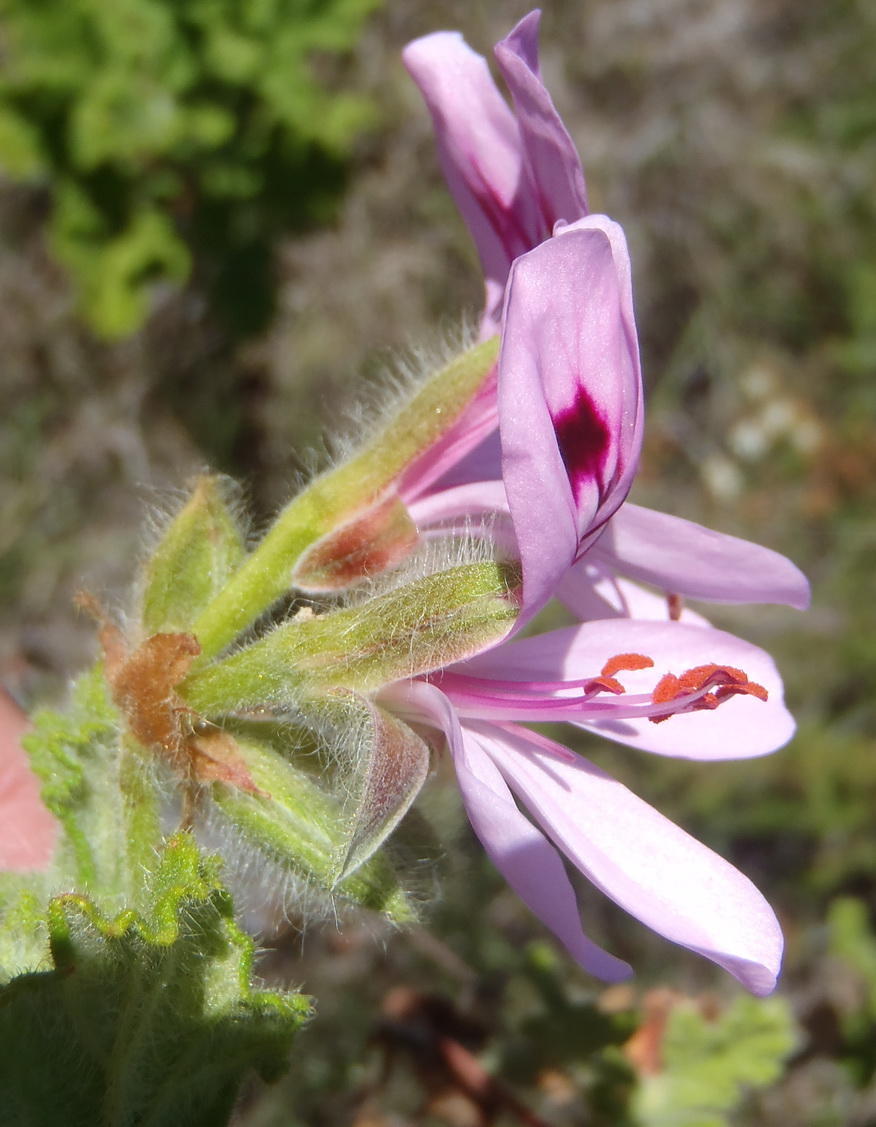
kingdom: Plantae
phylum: Tracheophyta
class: Magnoliopsida
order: Geraniales
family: Geraniaceae
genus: Pelargonium
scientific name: Pelargonium panduriforme
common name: Oakleaf garden geranium
